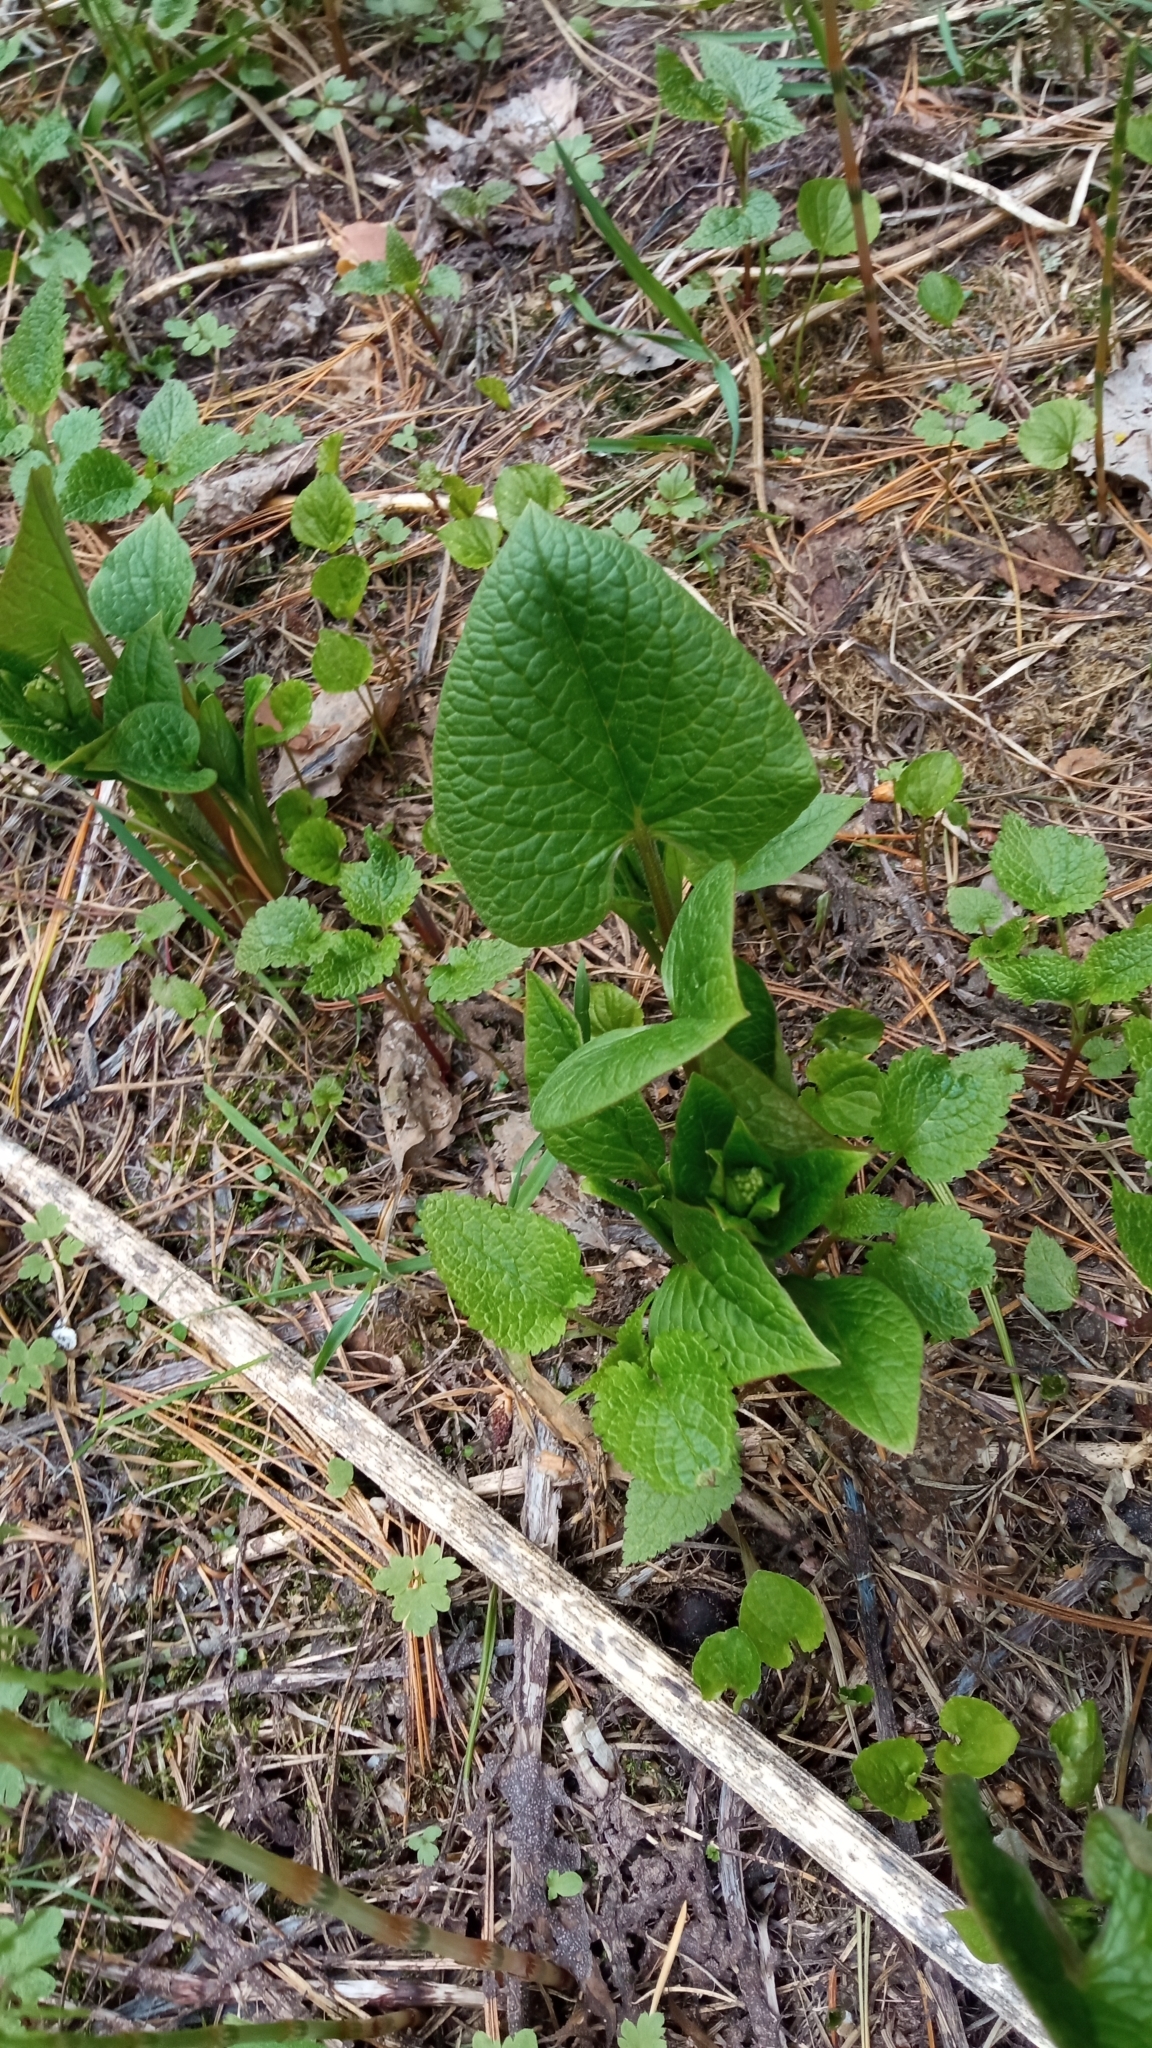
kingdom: Plantae
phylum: Tracheophyta
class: Magnoliopsida
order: Boraginales
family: Boraginaceae
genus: Brunnera
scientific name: Brunnera sibirica
